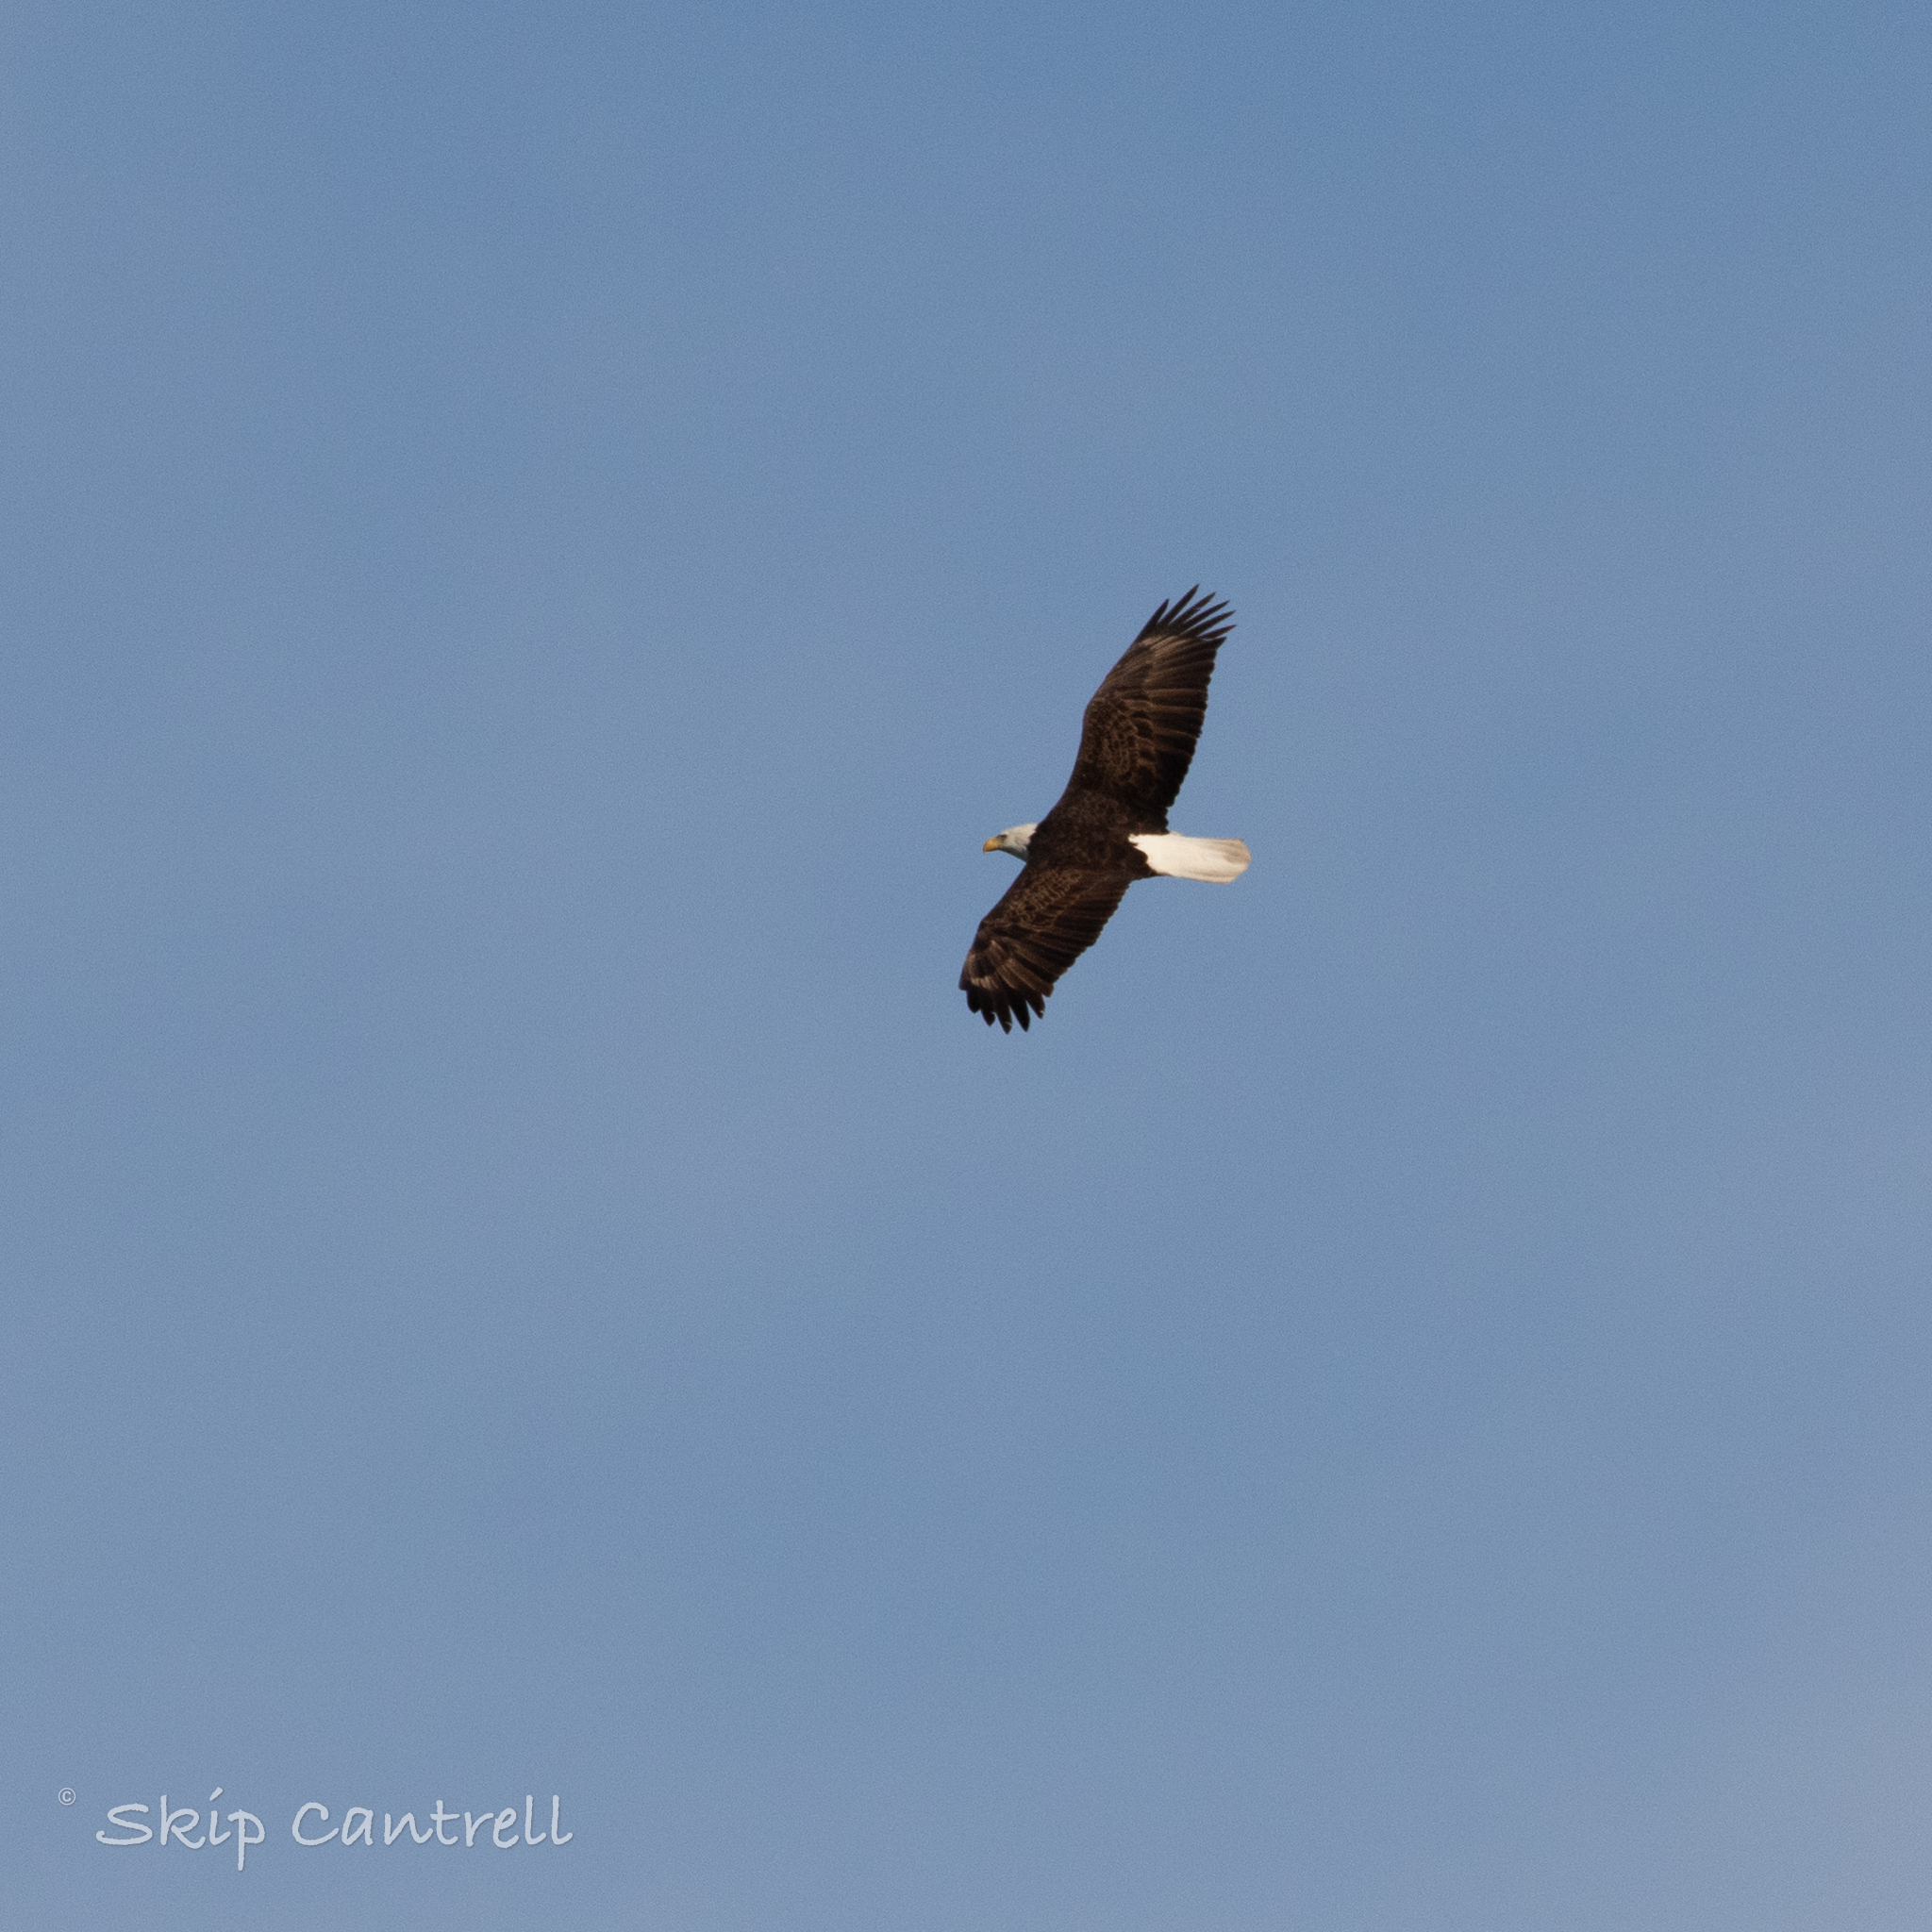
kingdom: Animalia
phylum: Chordata
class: Aves
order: Accipitriformes
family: Accipitridae
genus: Haliaeetus
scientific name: Haliaeetus leucocephalus
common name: Bald eagle
